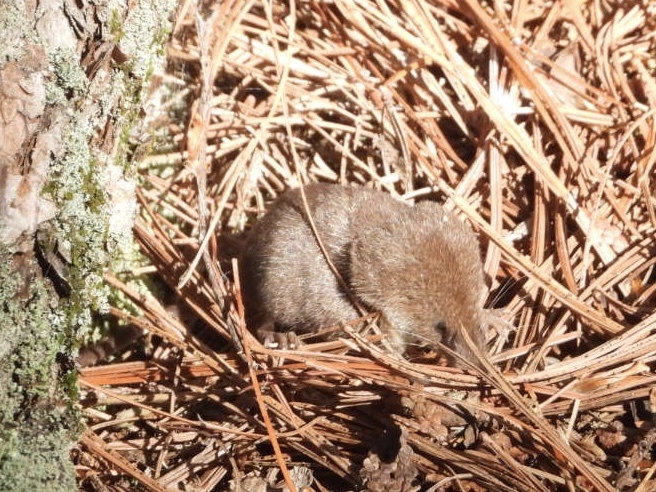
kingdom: Animalia
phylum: Chordata
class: Mammalia
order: Soricomorpha
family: Soricidae
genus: Sorex
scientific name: Sorex cinereus
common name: Cinereus shrew
